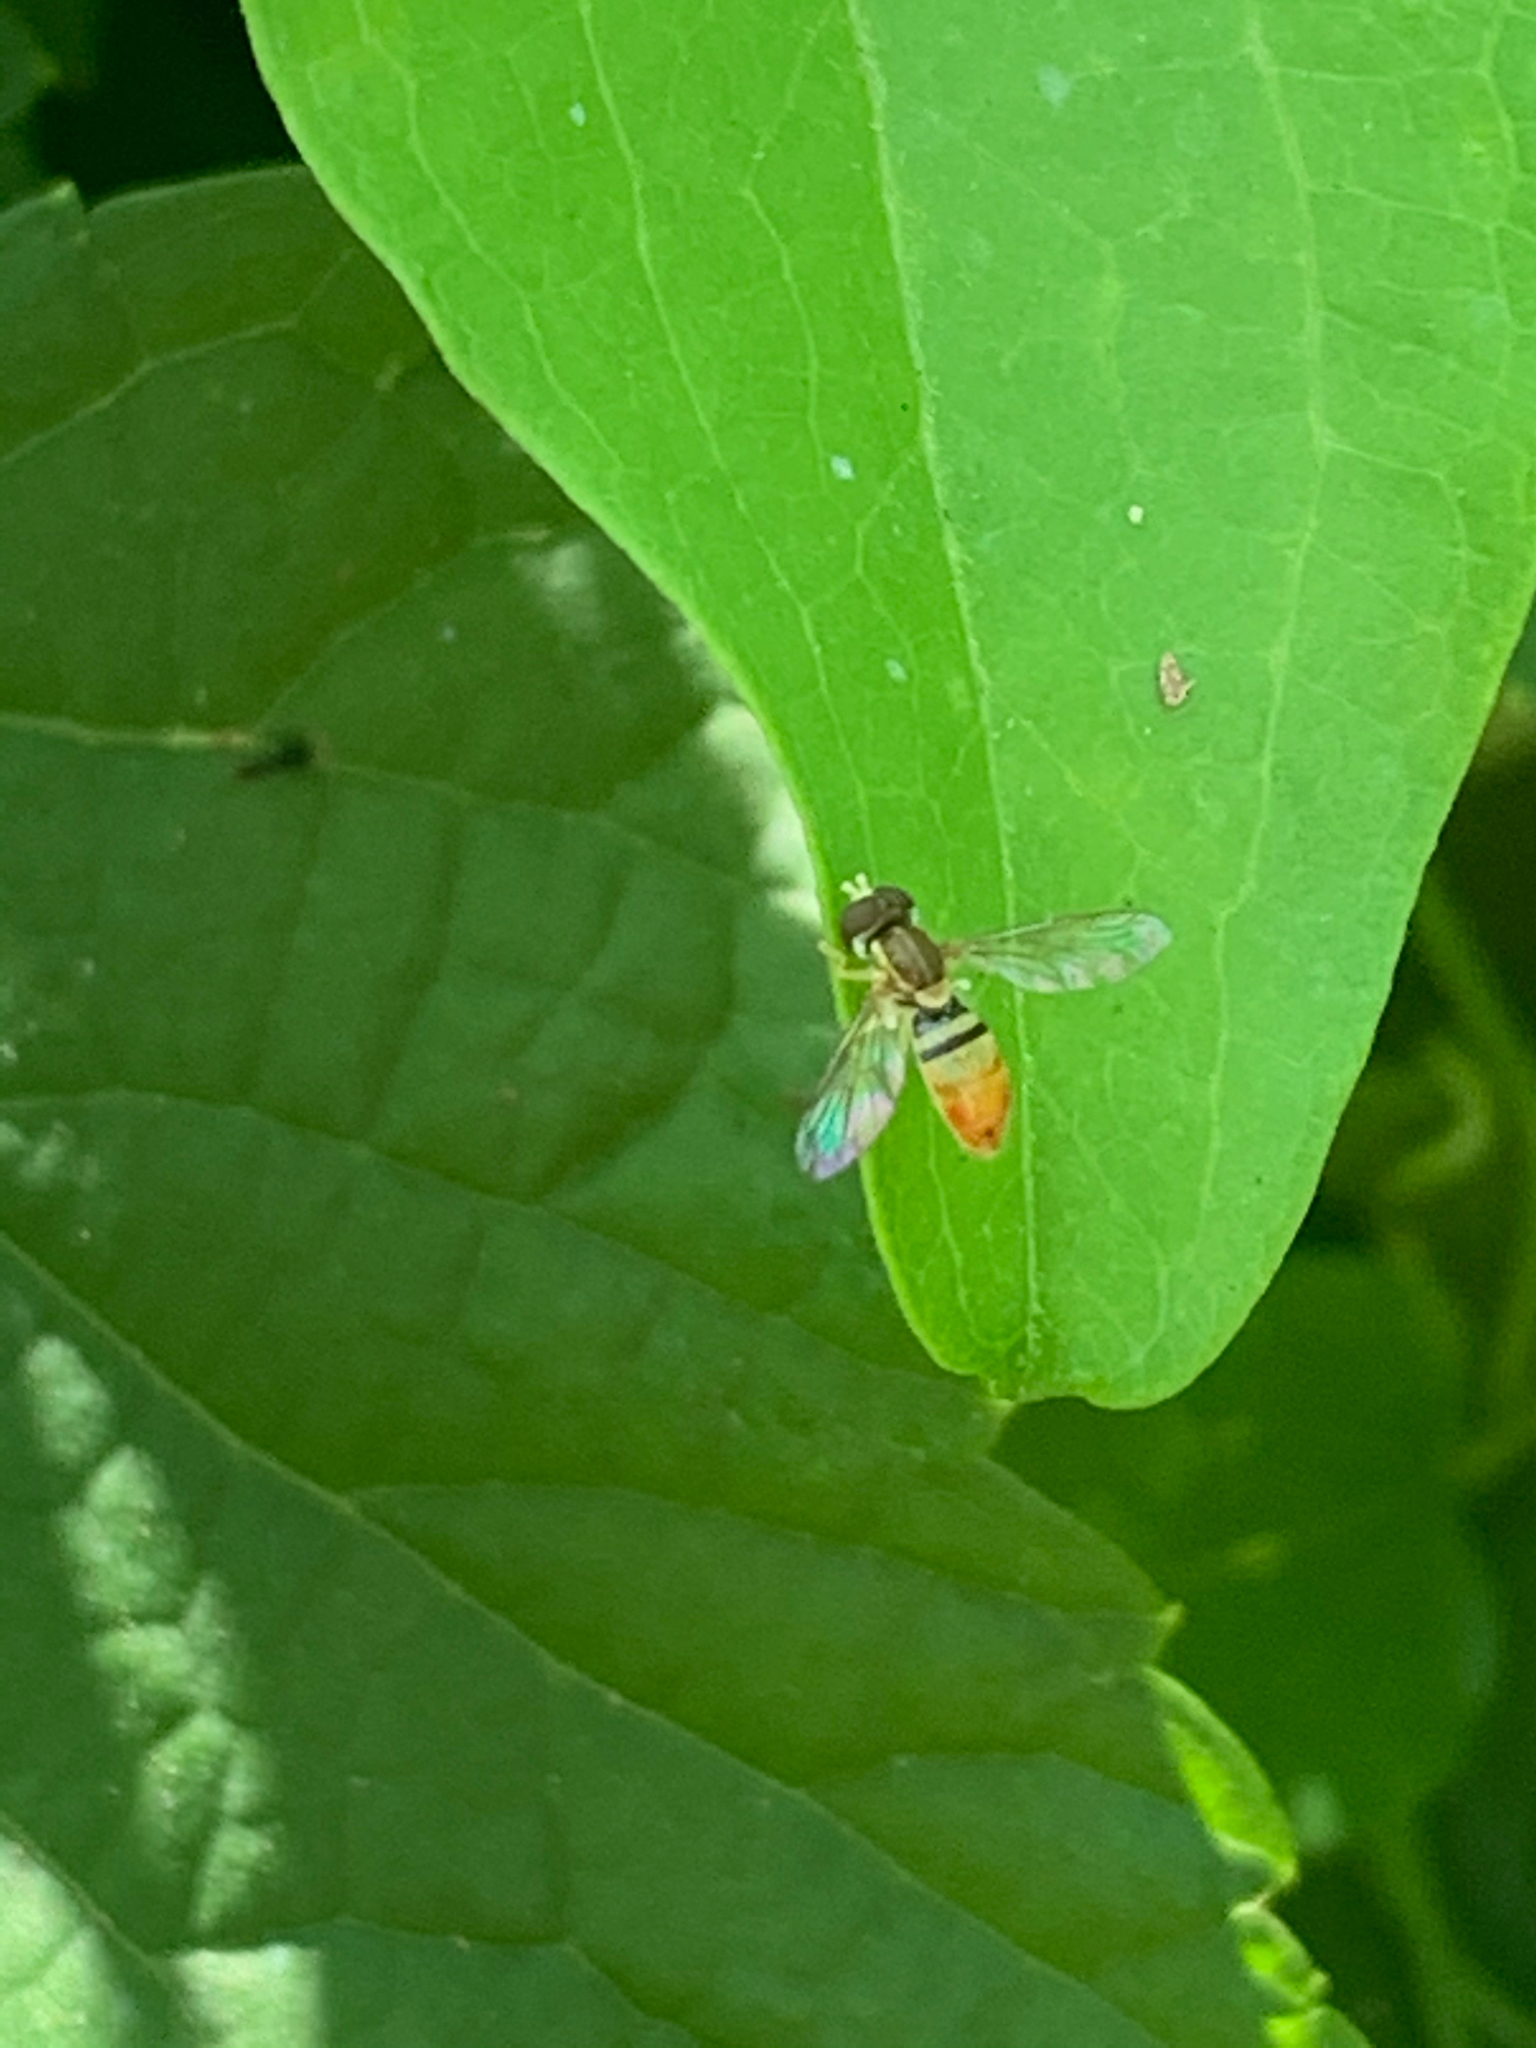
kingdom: Animalia
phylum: Arthropoda
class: Insecta
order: Diptera
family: Syrphidae
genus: Toxomerus
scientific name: Toxomerus marginatus
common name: Syrphid fly
